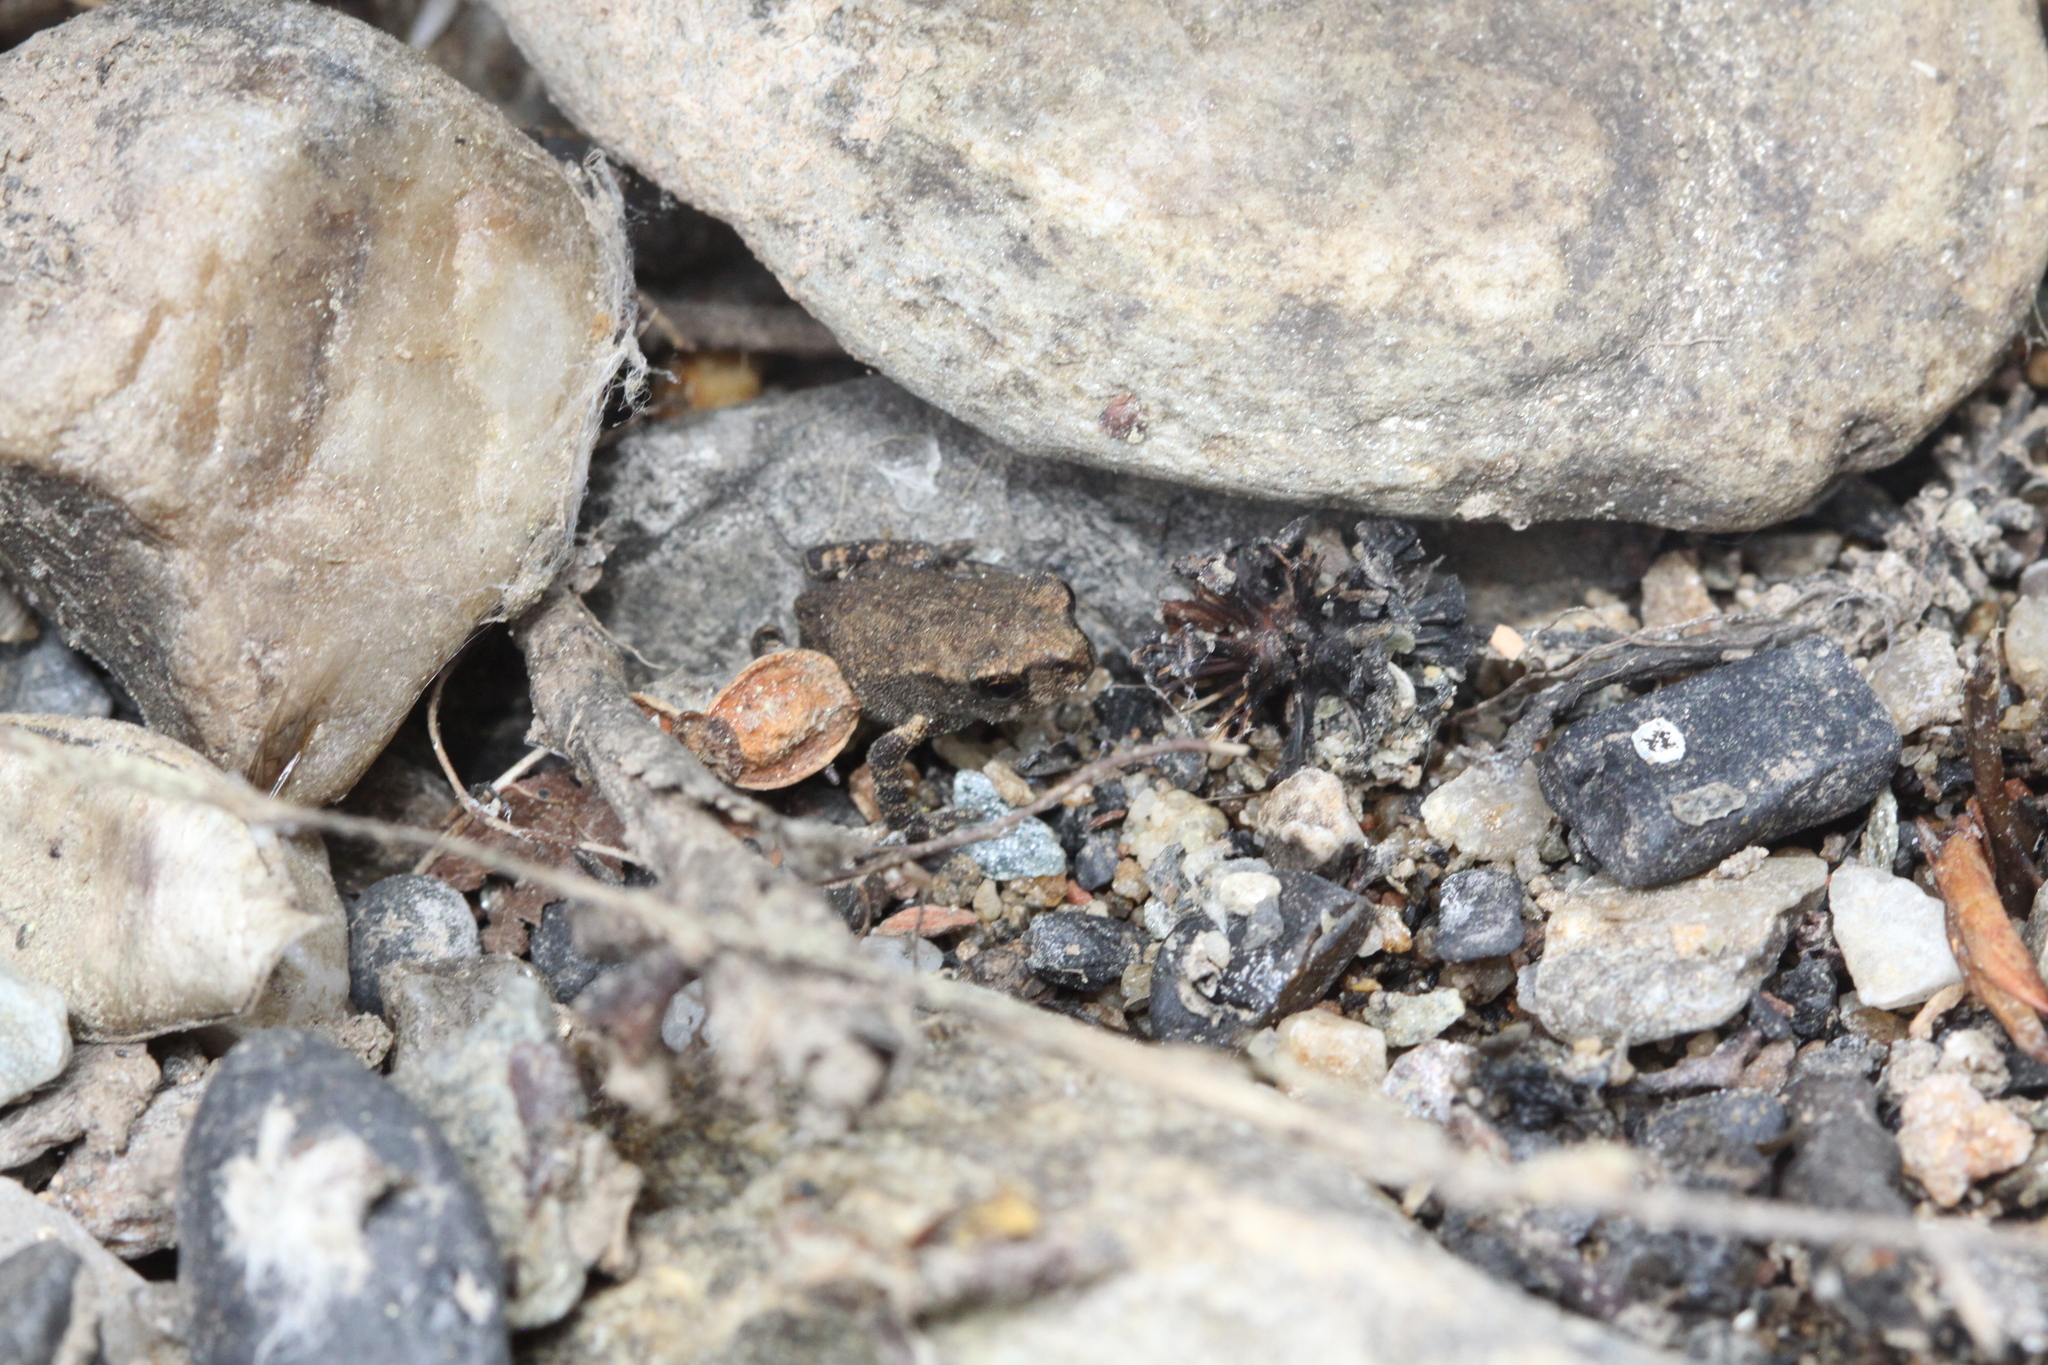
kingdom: Animalia
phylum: Chordata
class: Amphibia
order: Anura
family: Bufonidae
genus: Bufo
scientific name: Bufo spinosus
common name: Western common toad
